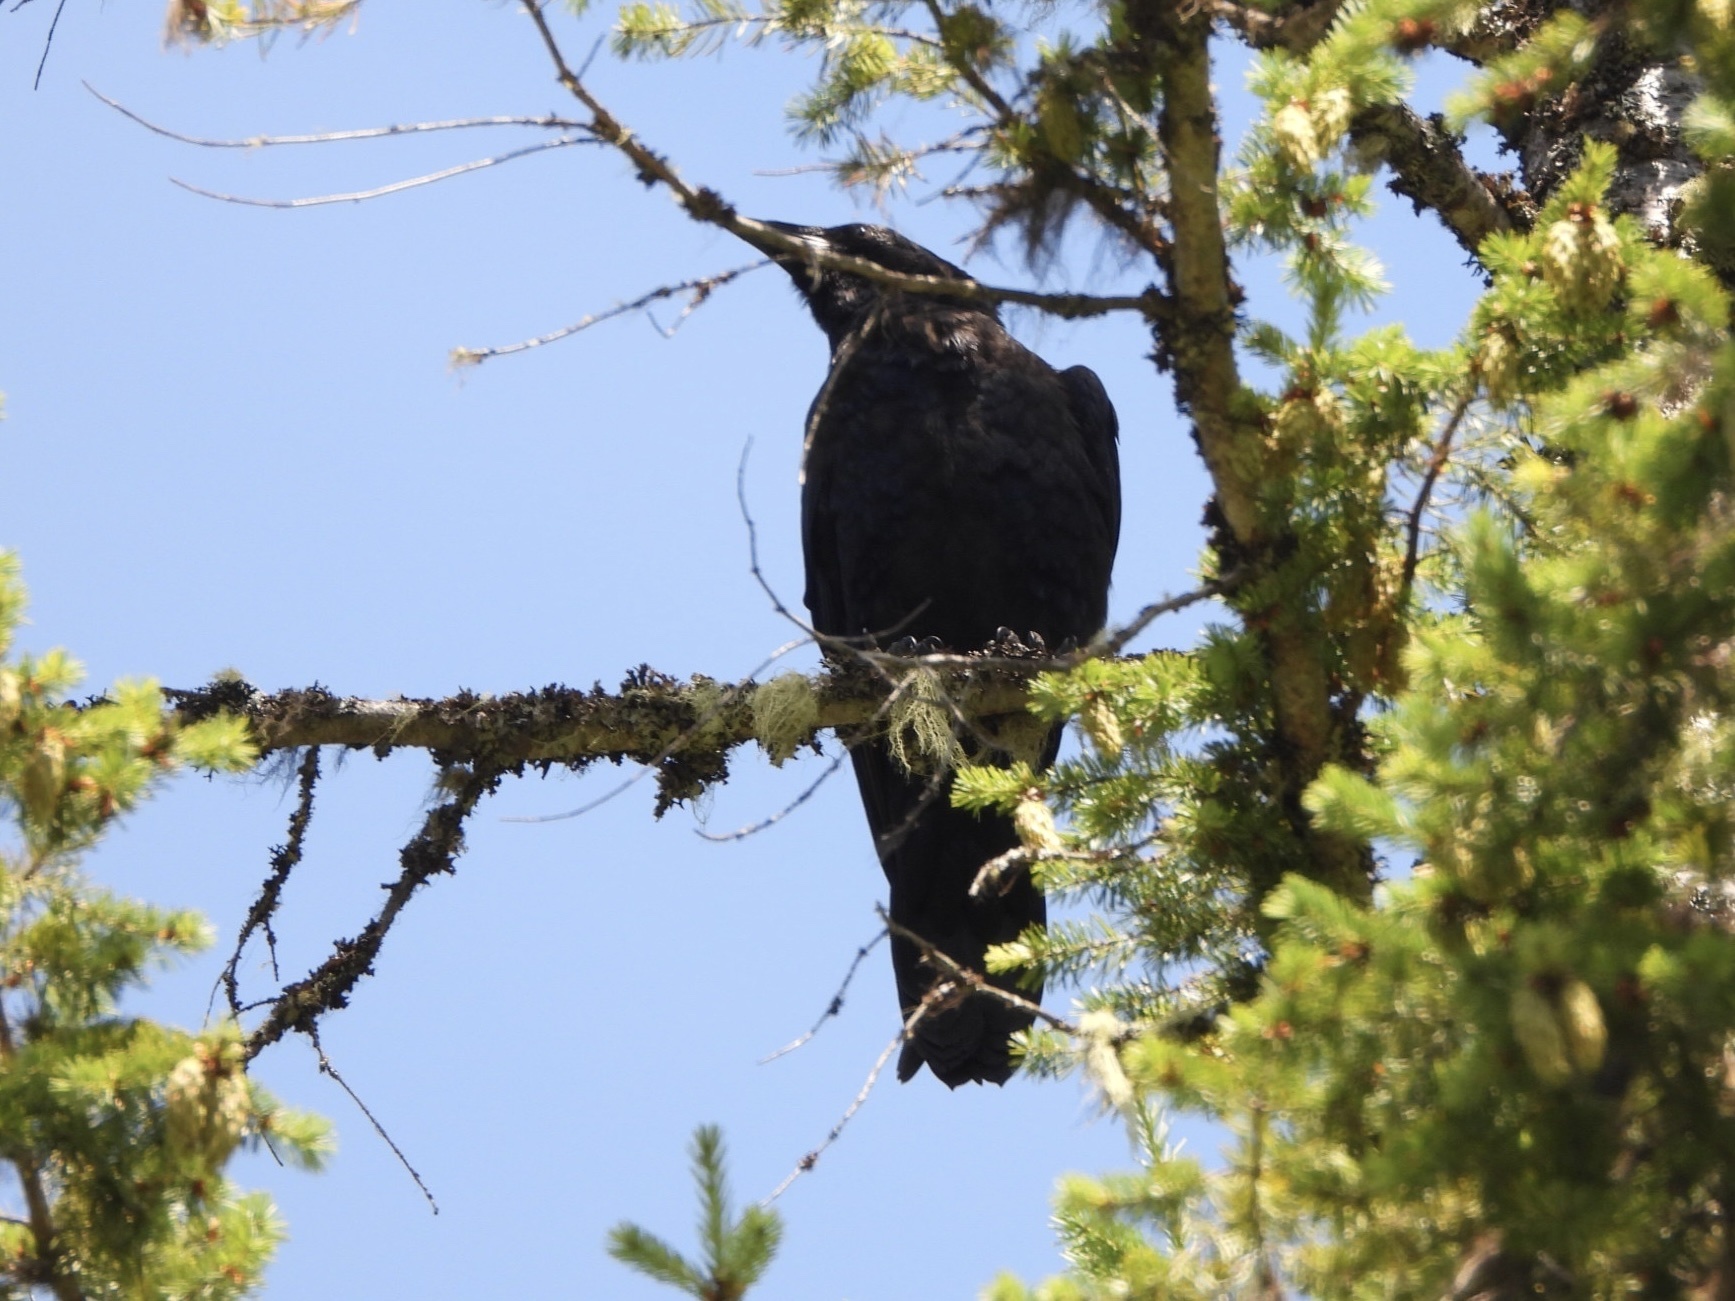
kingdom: Animalia
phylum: Chordata
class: Aves
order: Passeriformes
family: Corvidae
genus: Corvus
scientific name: Corvus corax
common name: Common raven
